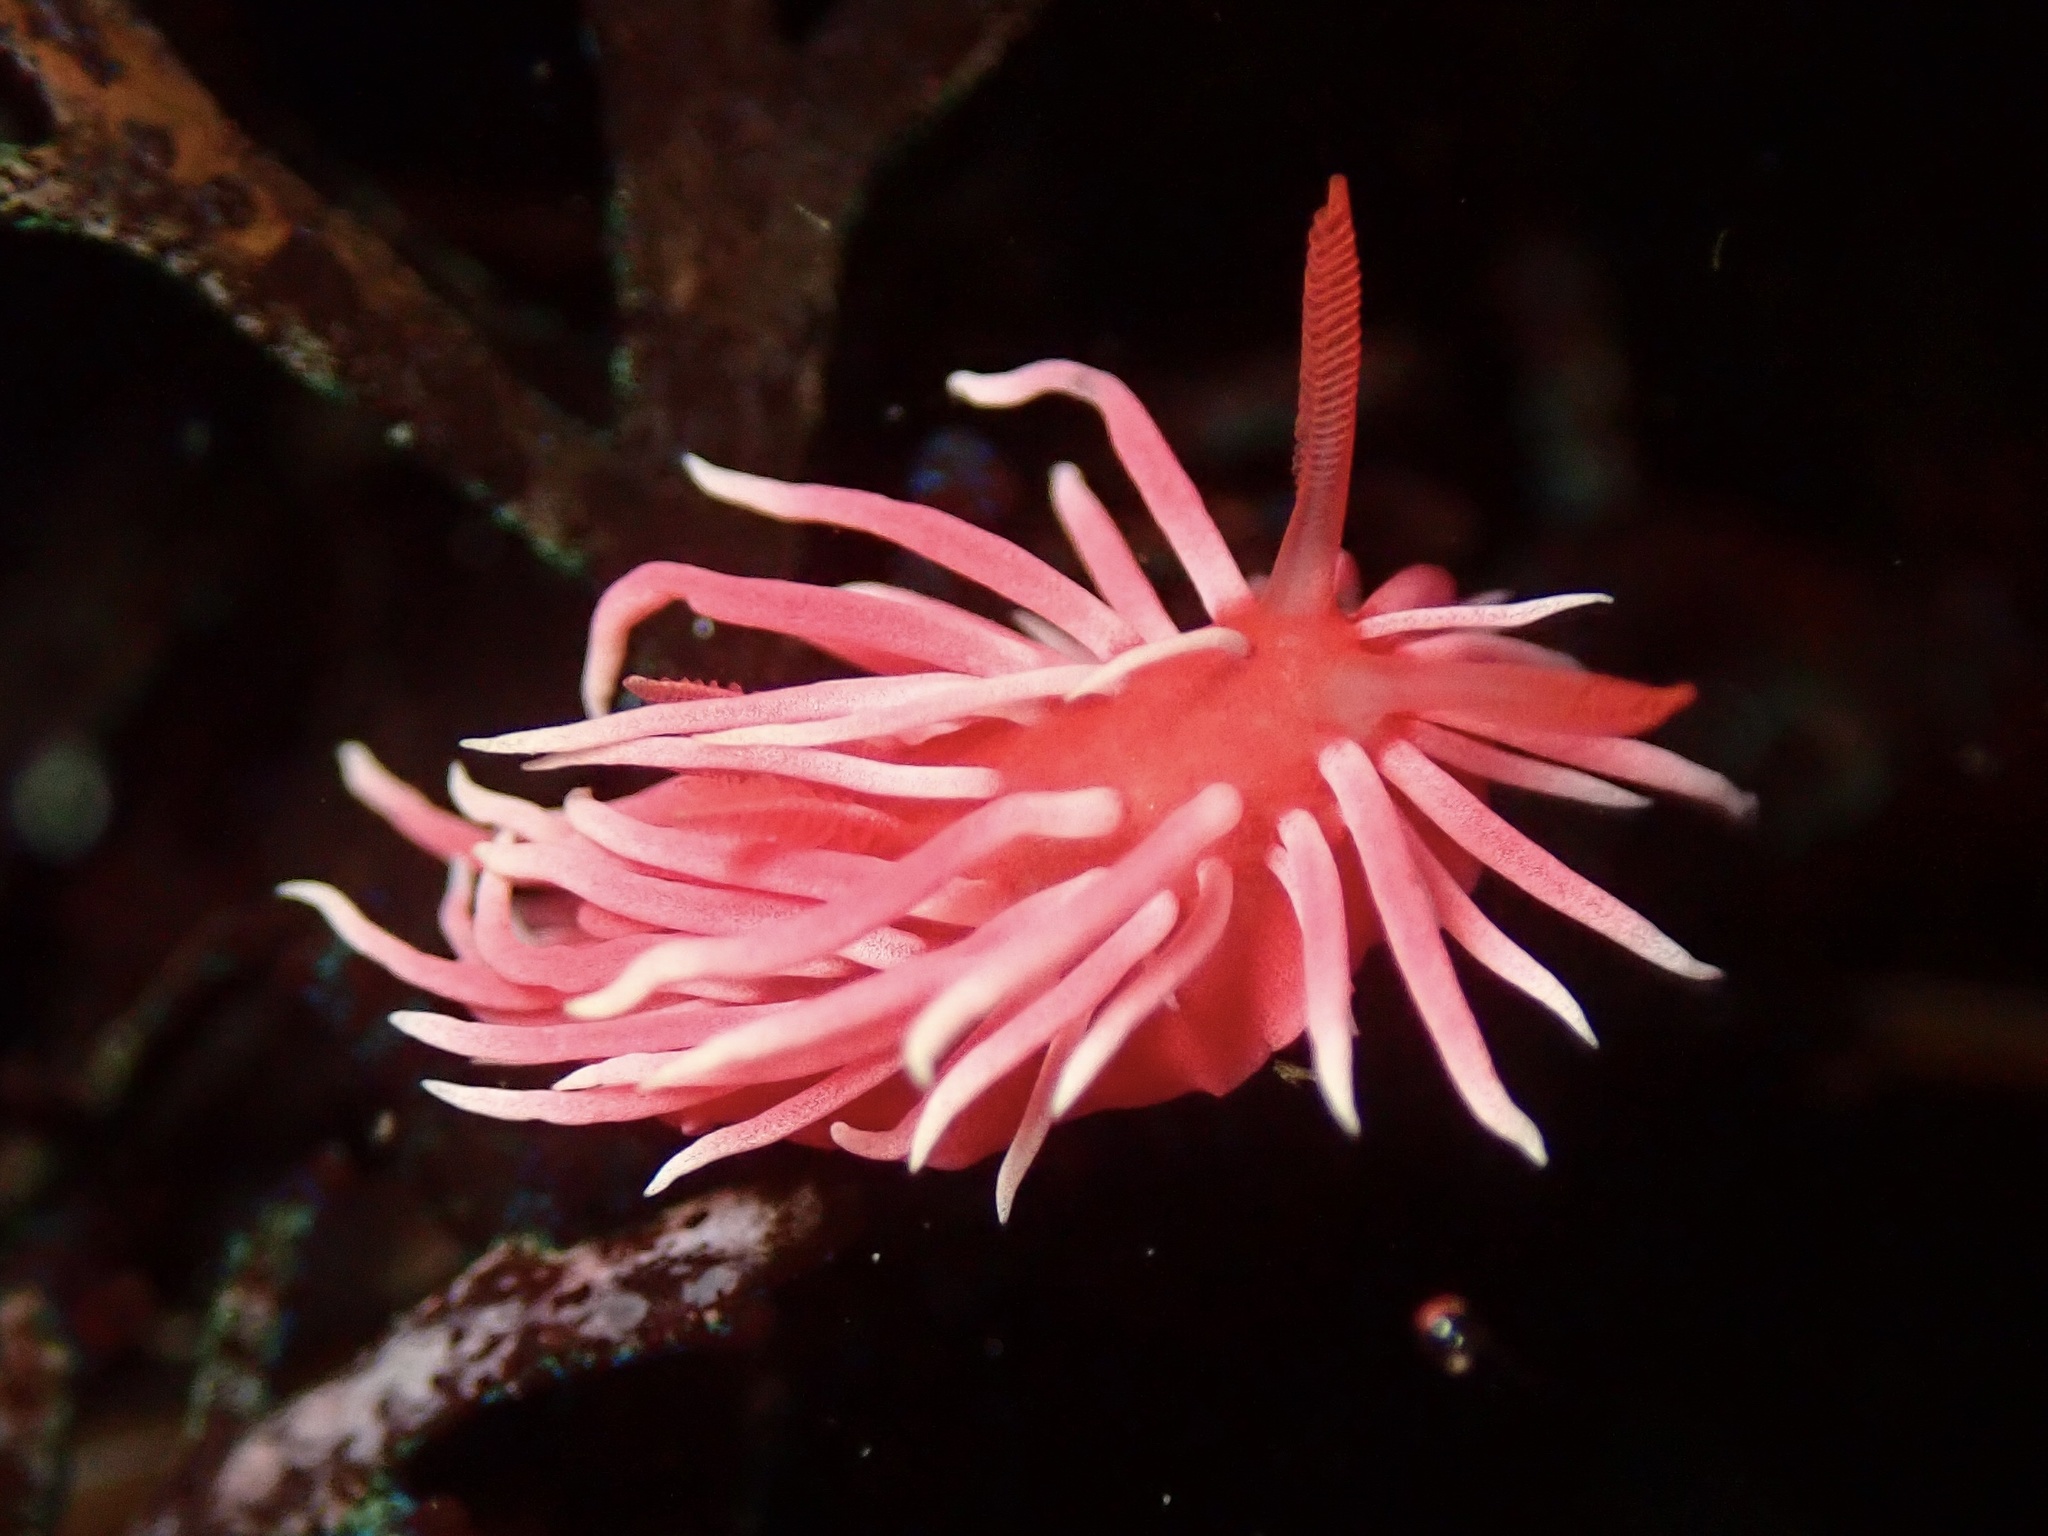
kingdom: Animalia
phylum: Mollusca
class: Gastropoda
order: Nudibranchia
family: Goniodorididae
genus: Okenia
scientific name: Okenia
